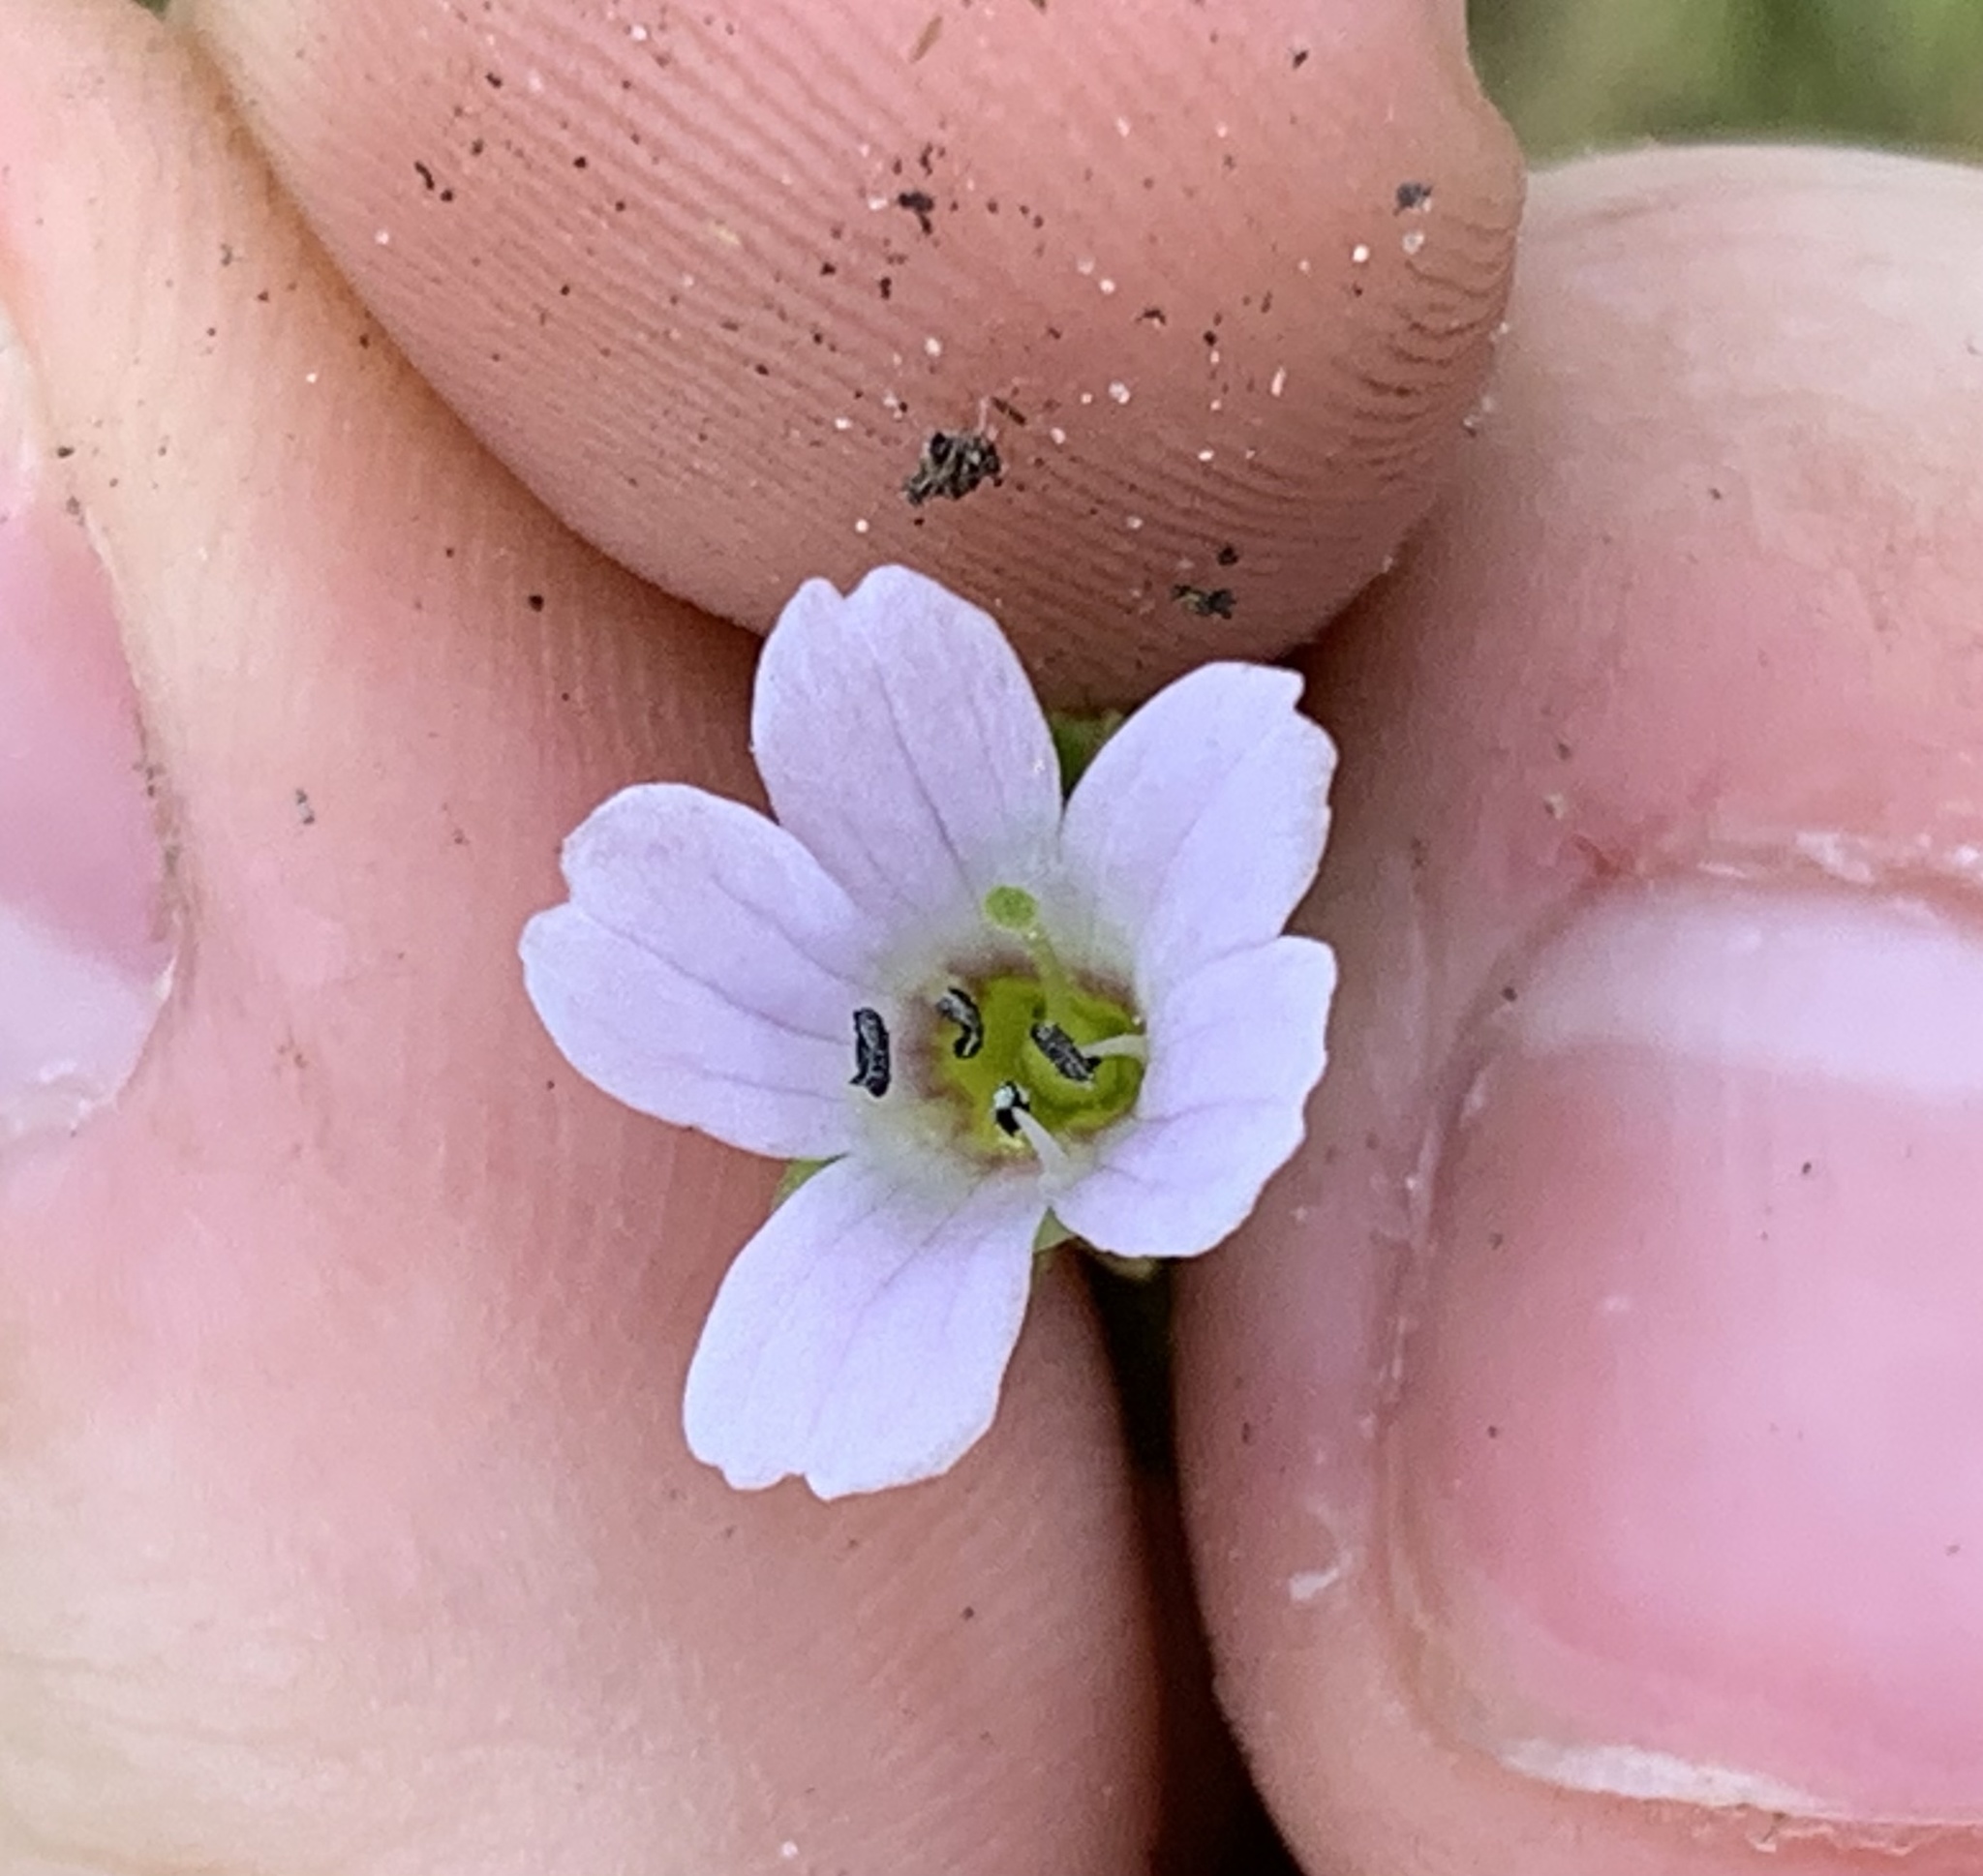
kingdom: Plantae
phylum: Tracheophyta
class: Magnoliopsida
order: Lamiales
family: Plantaginaceae
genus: Bacopa
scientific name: Bacopa monnieri
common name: Indian-pennywort
